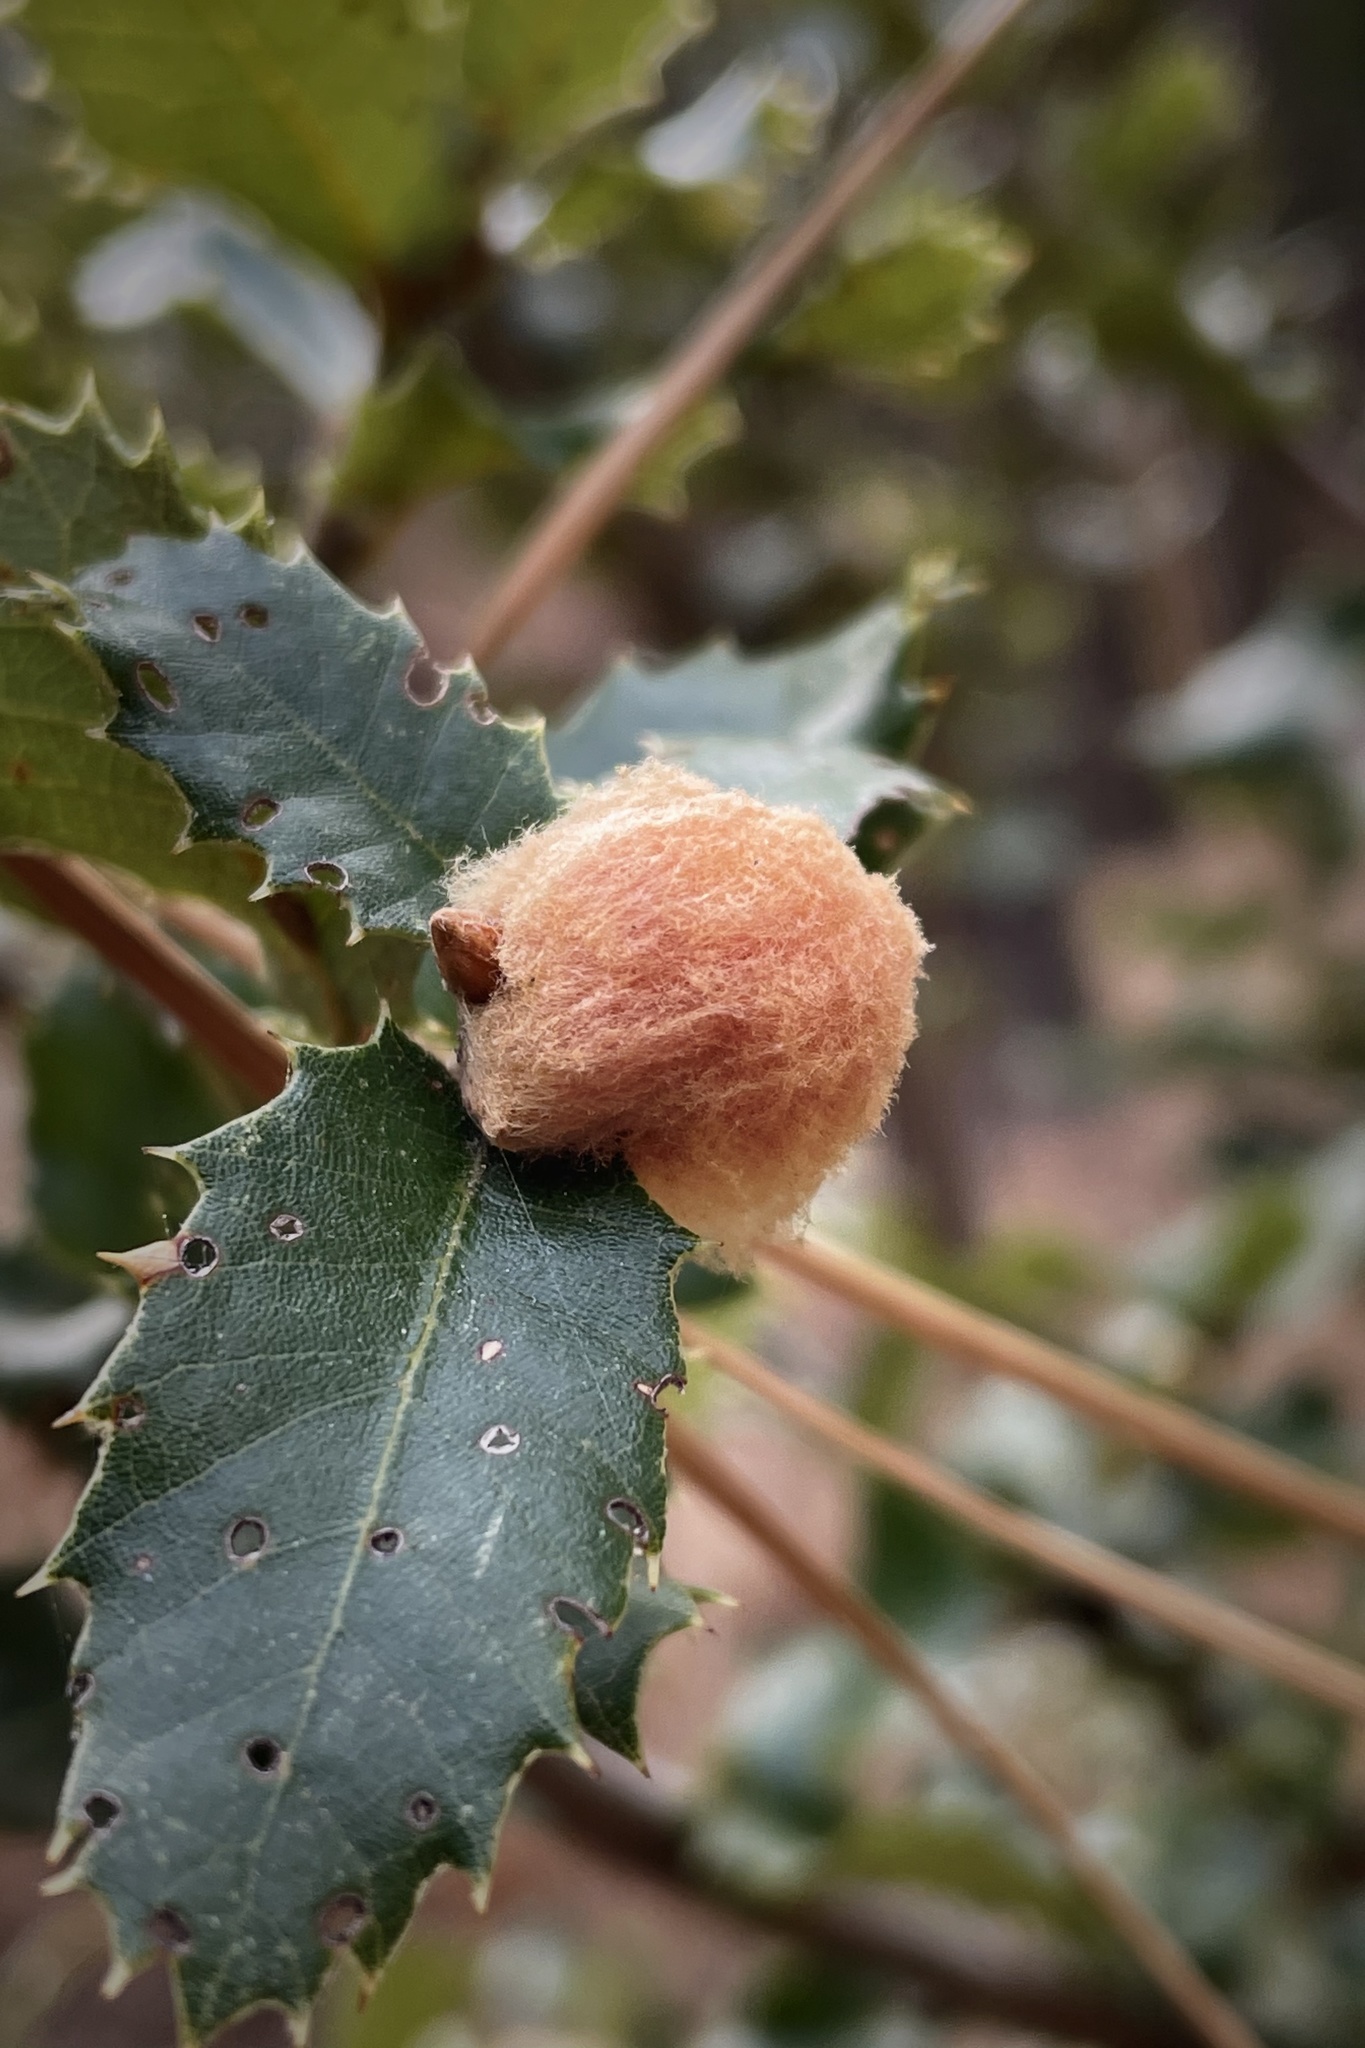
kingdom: Animalia
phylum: Arthropoda
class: Insecta
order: Hymenoptera
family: Cynipidae
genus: Heteroecus
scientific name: Heteroecus
